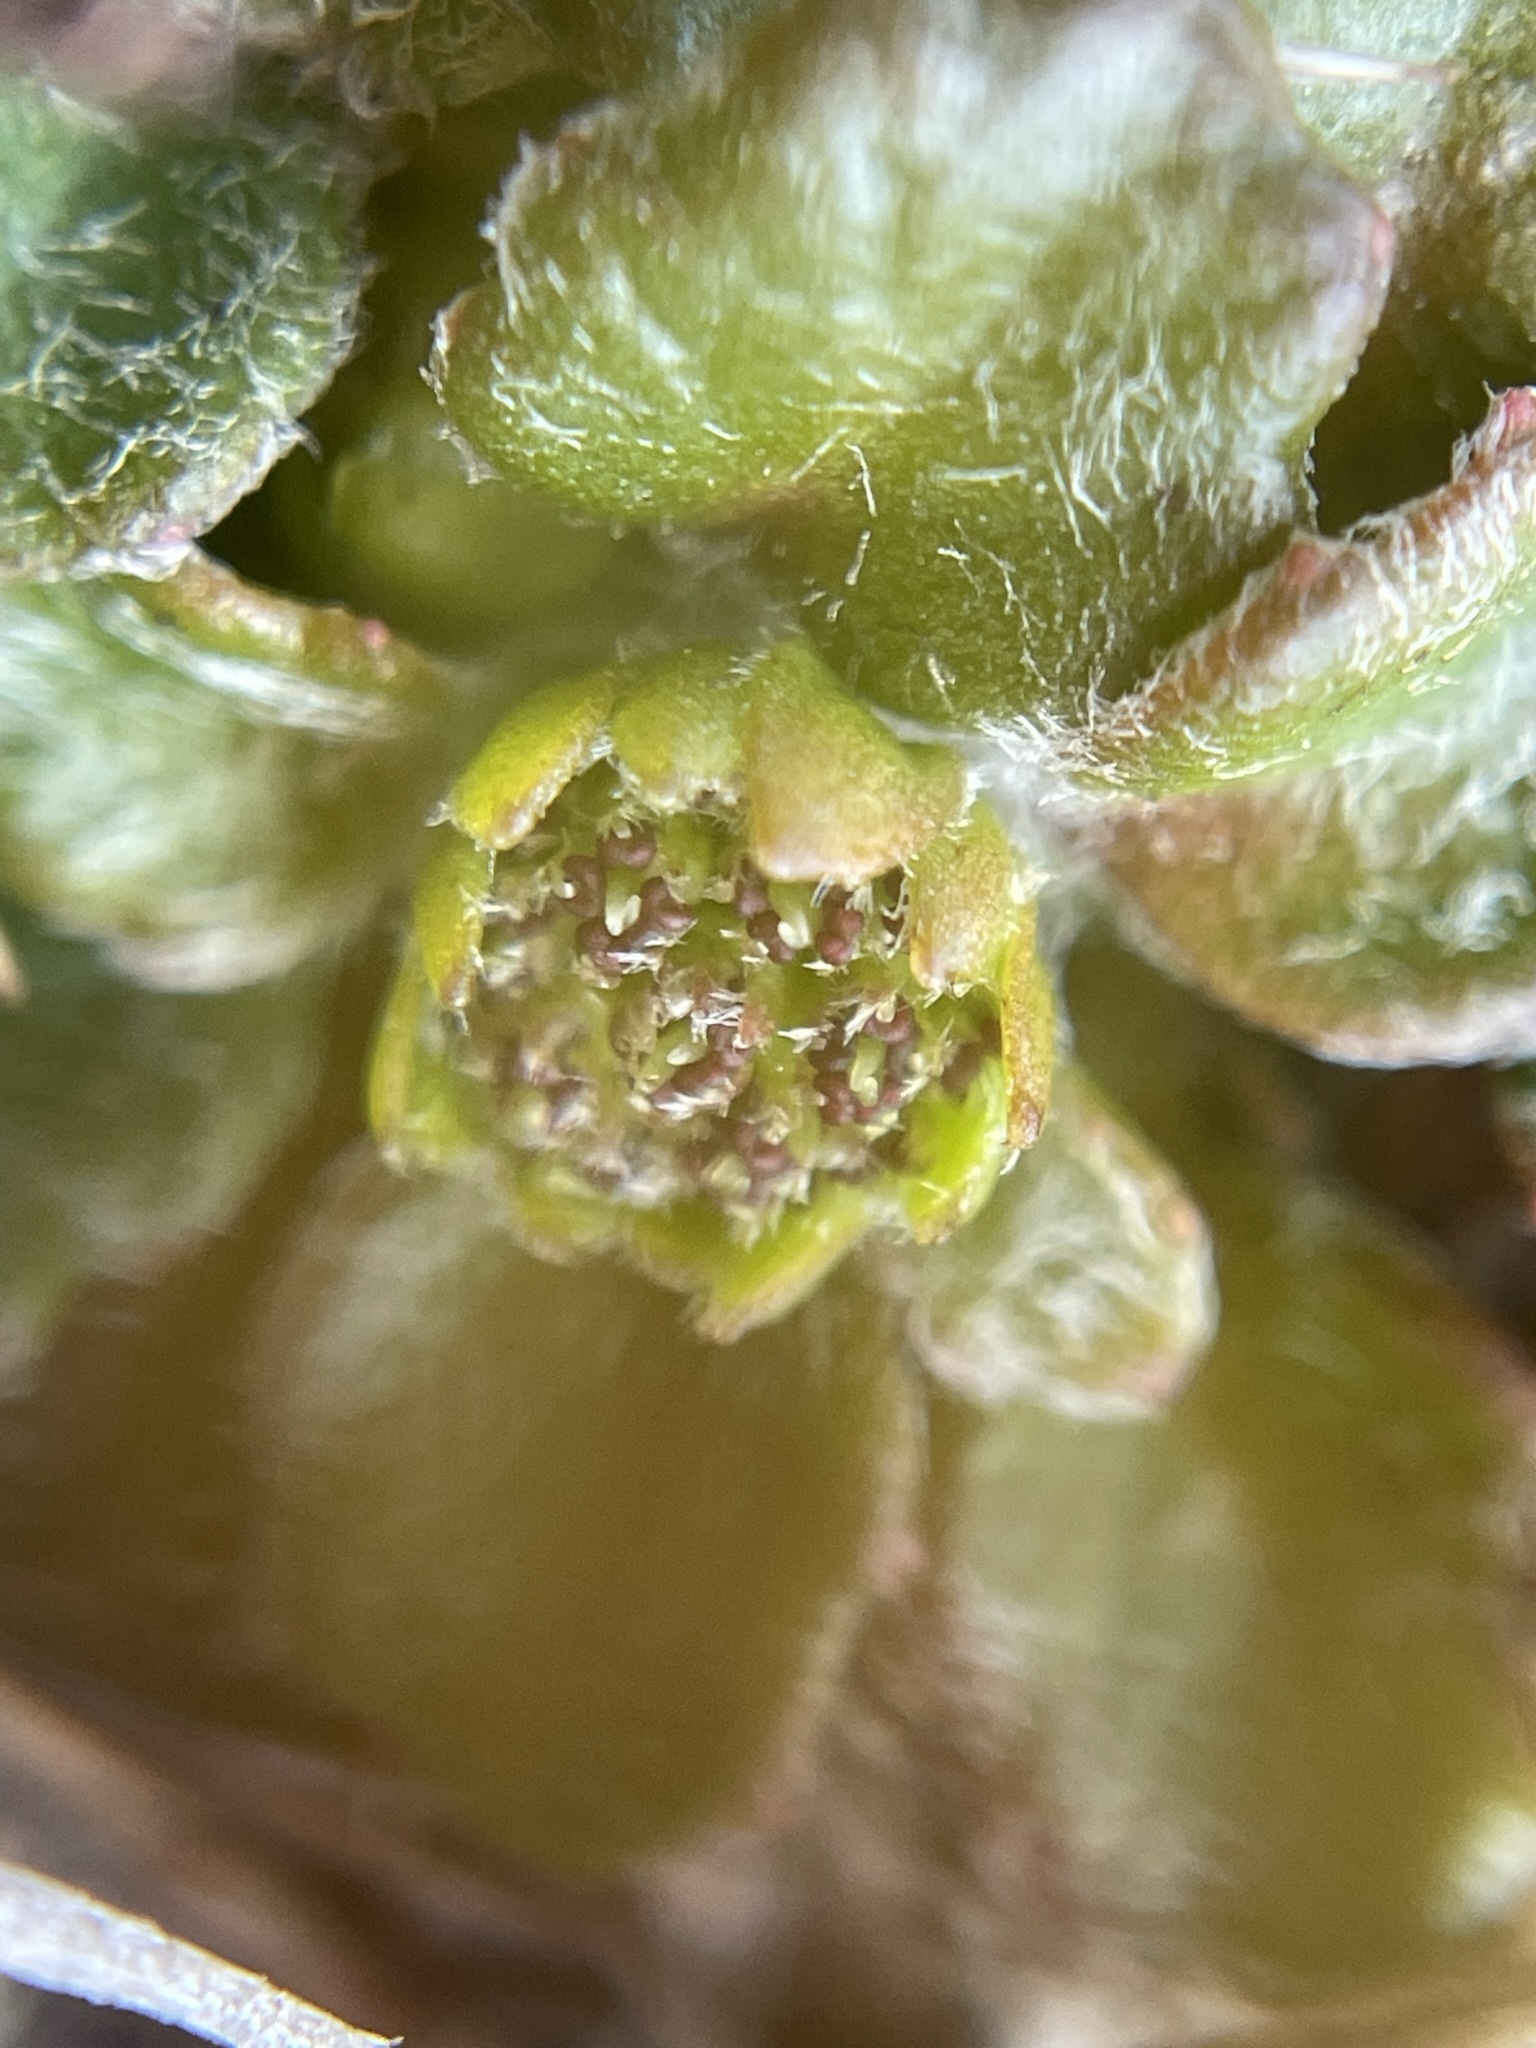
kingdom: Plantae
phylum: Tracheophyta
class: Magnoliopsida
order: Apiales
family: Apiaceae
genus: Actinotus
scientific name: Actinotus bellidioides
